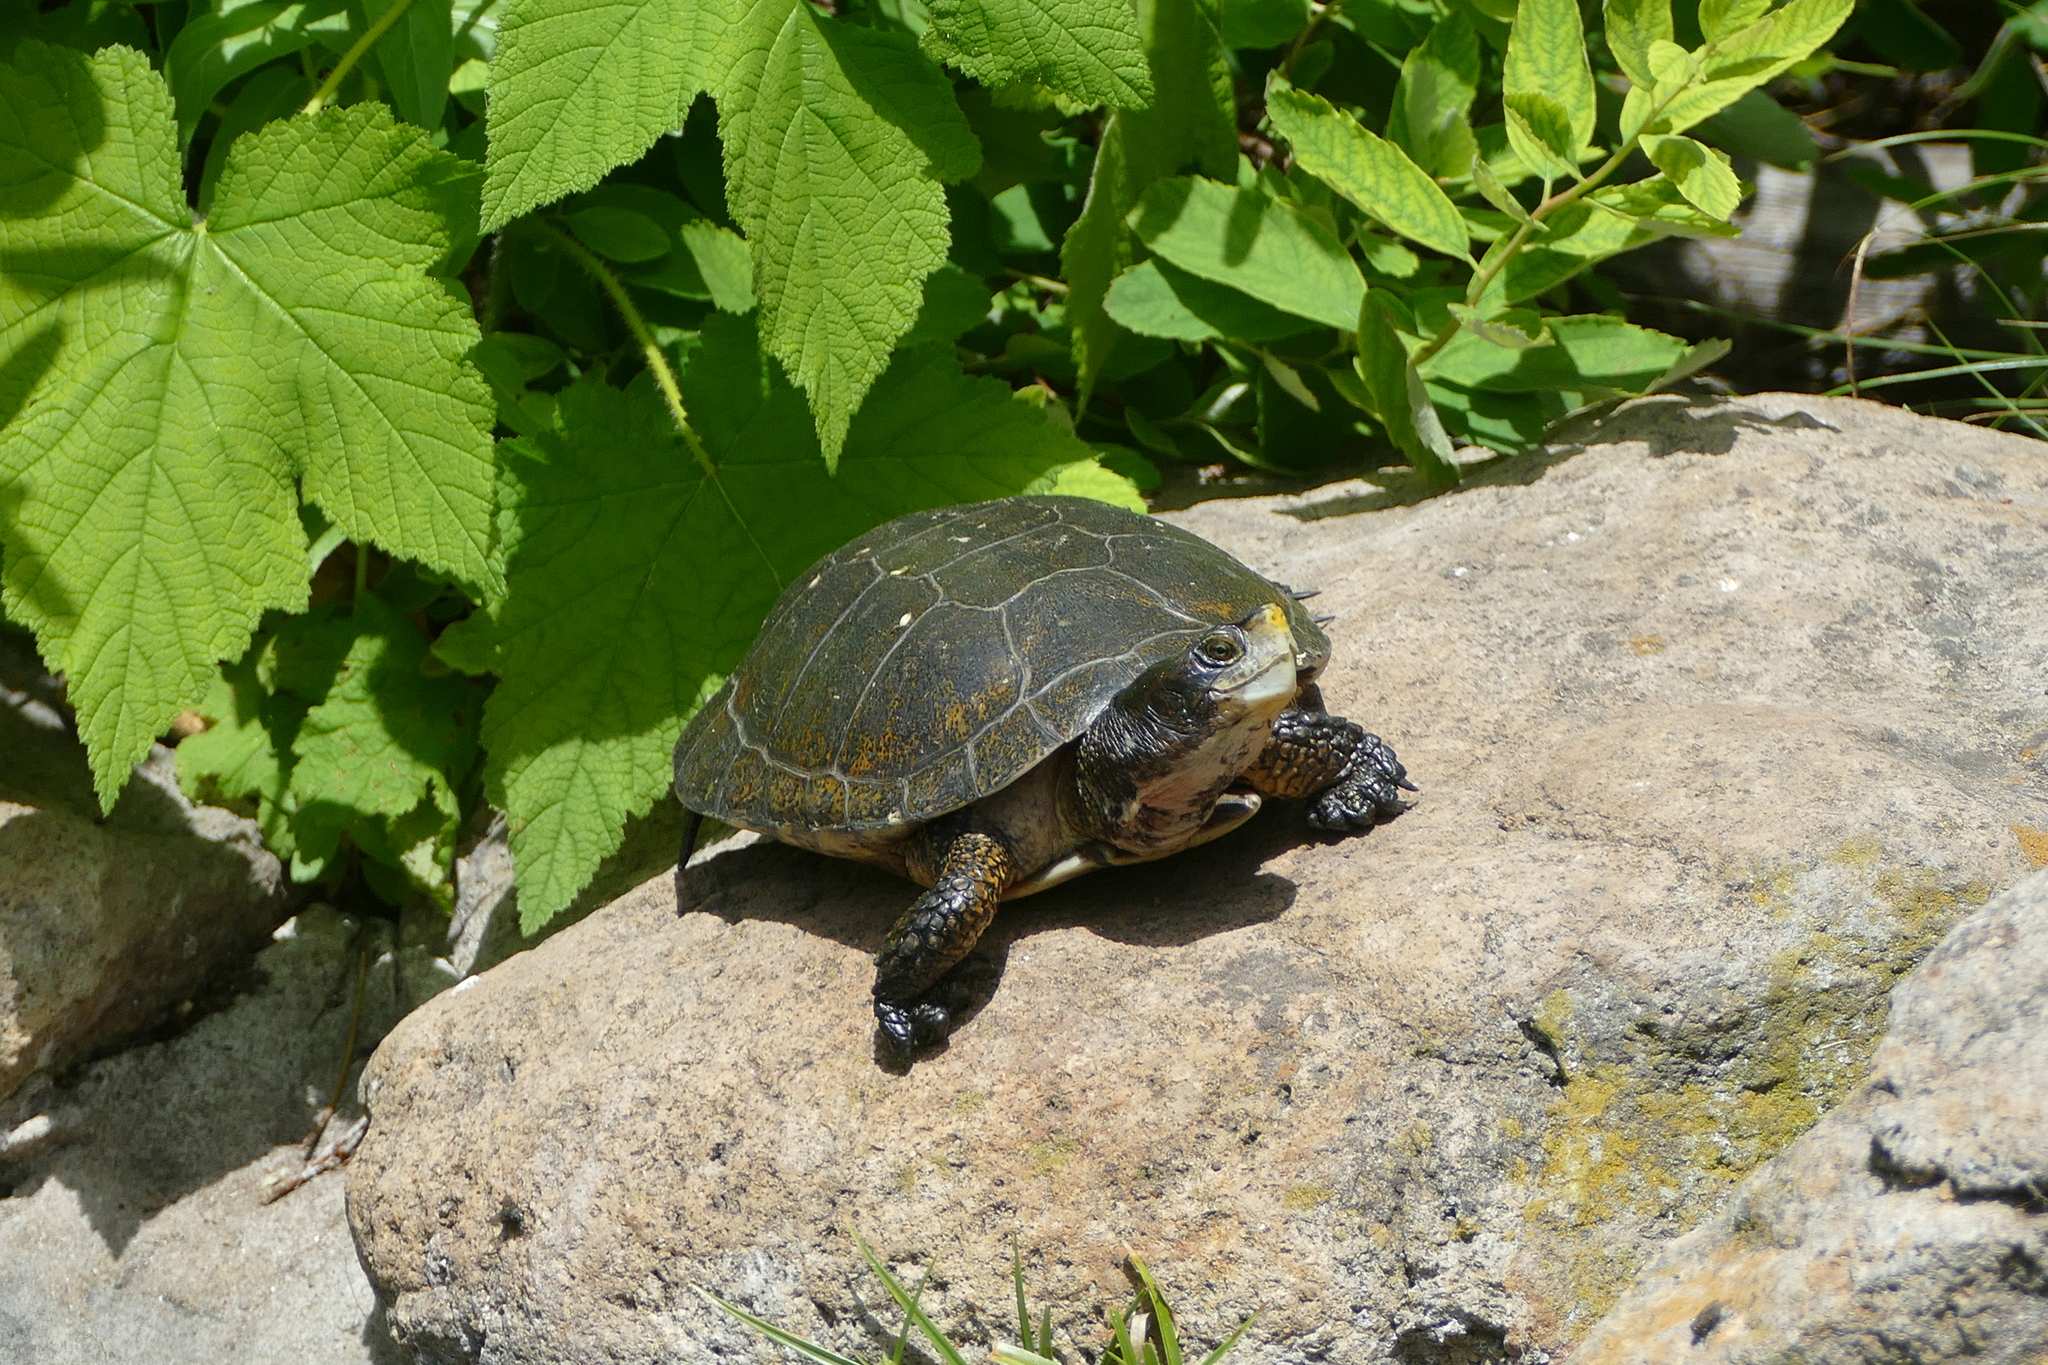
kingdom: Animalia
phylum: Chordata
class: Testudines
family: Emydidae
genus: Actinemys
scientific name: Actinemys marmorata
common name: Western pond turtle
